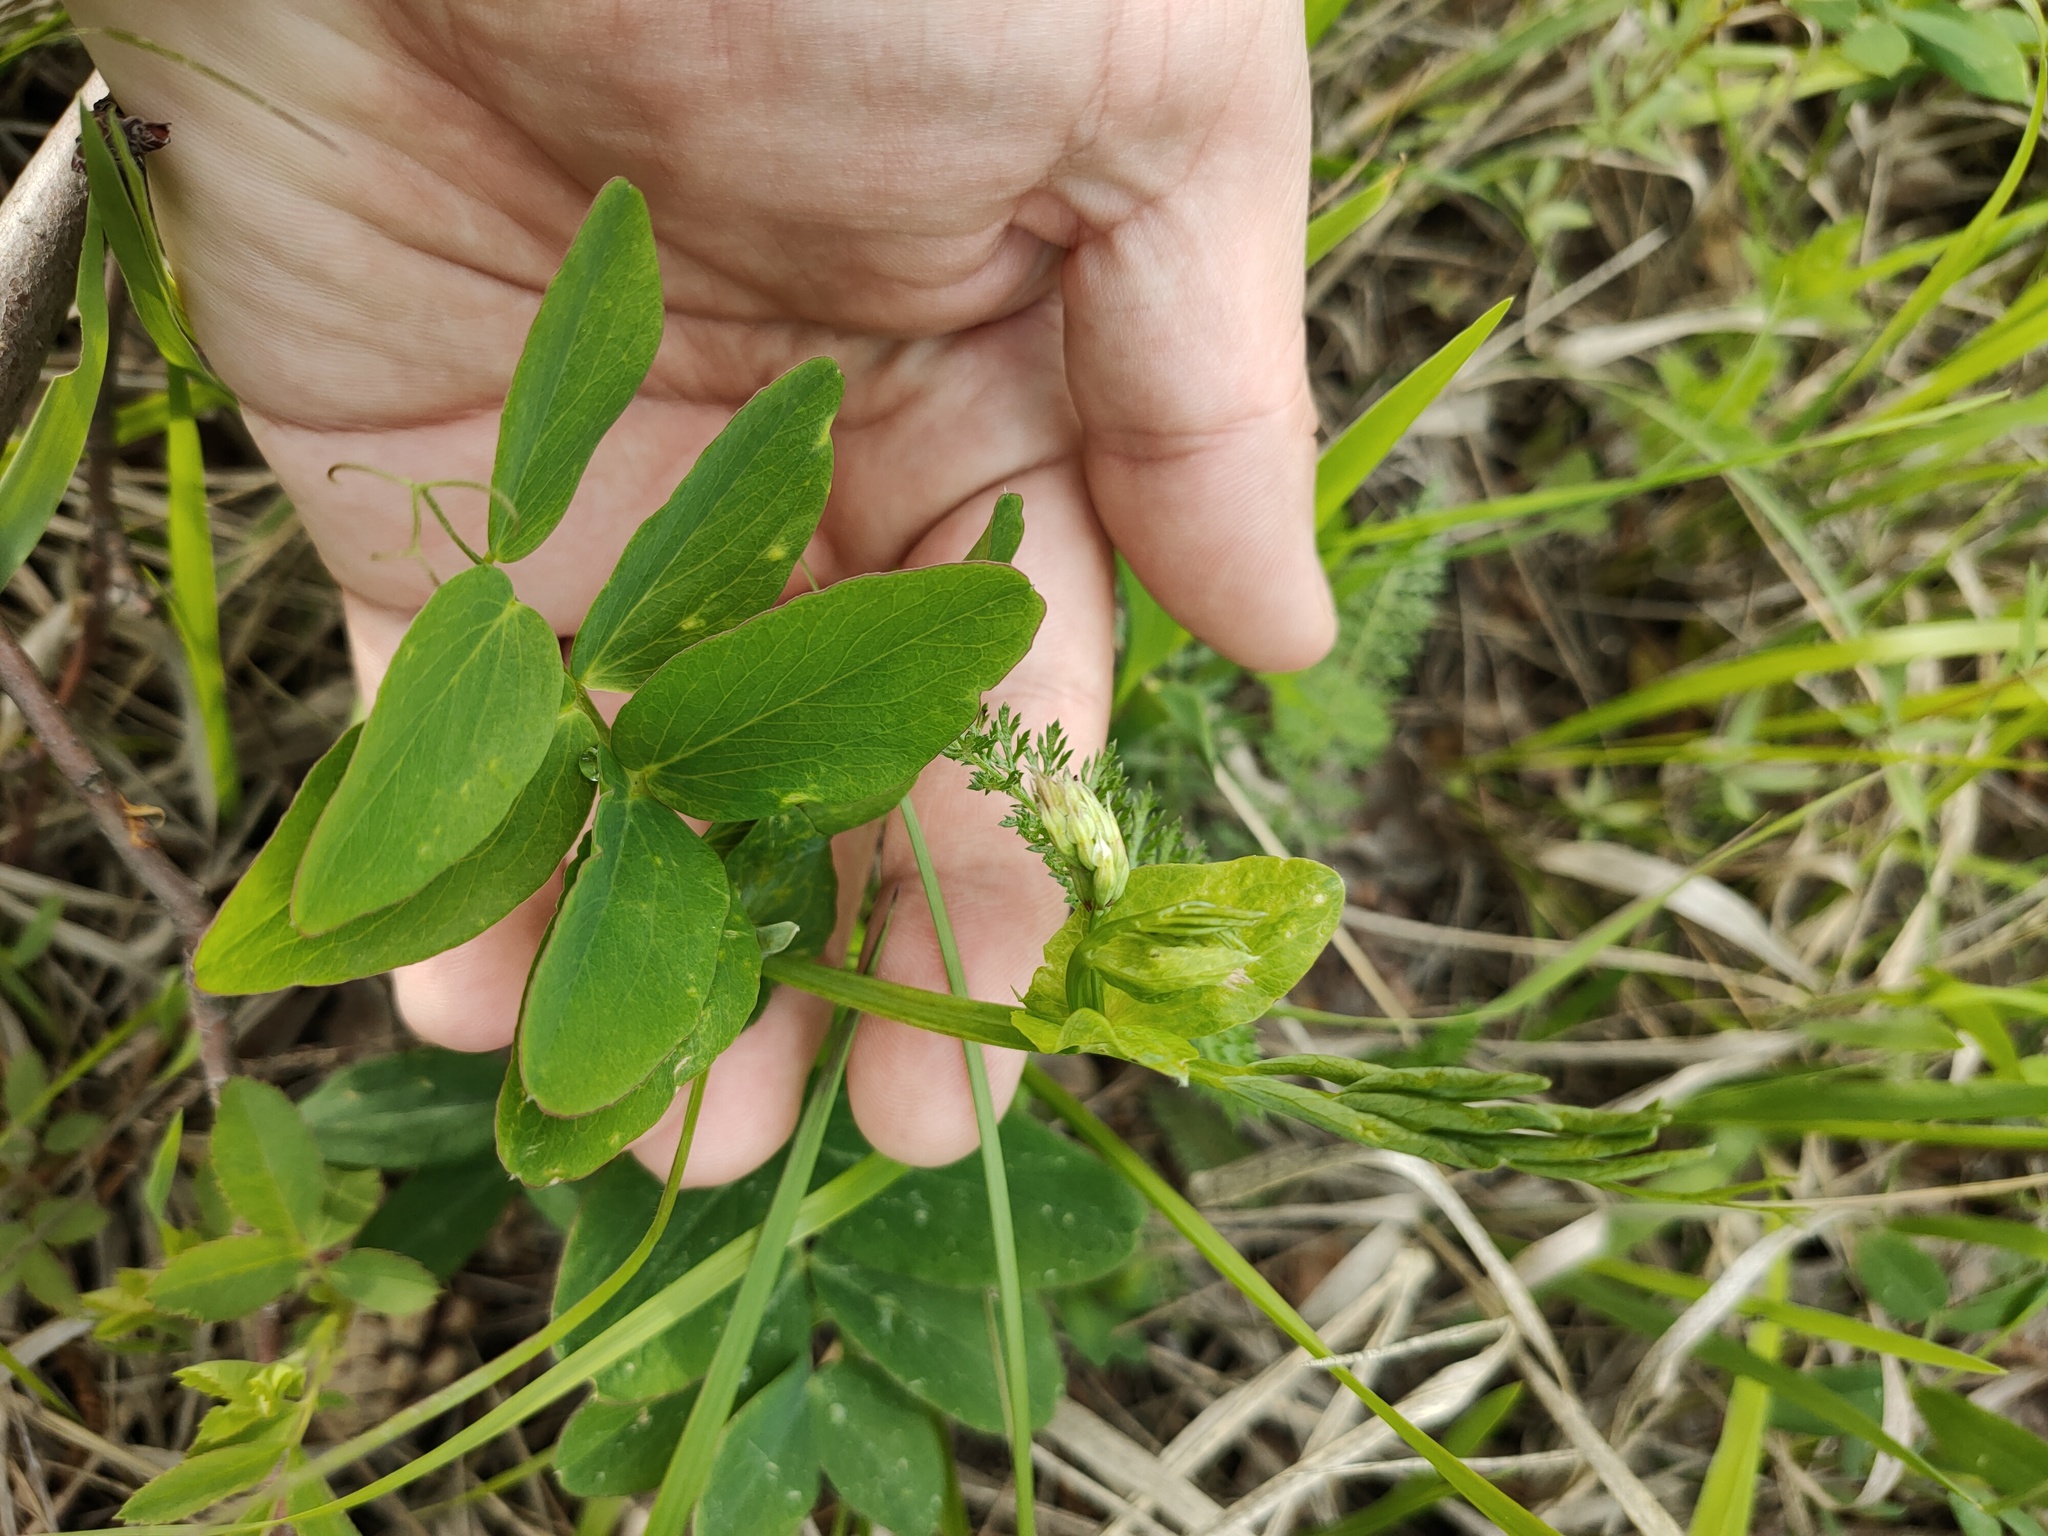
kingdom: Plantae
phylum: Tracheophyta
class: Magnoliopsida
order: Fabales
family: Fabaceae
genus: Lathyrus
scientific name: Lathyrus pisiformis
